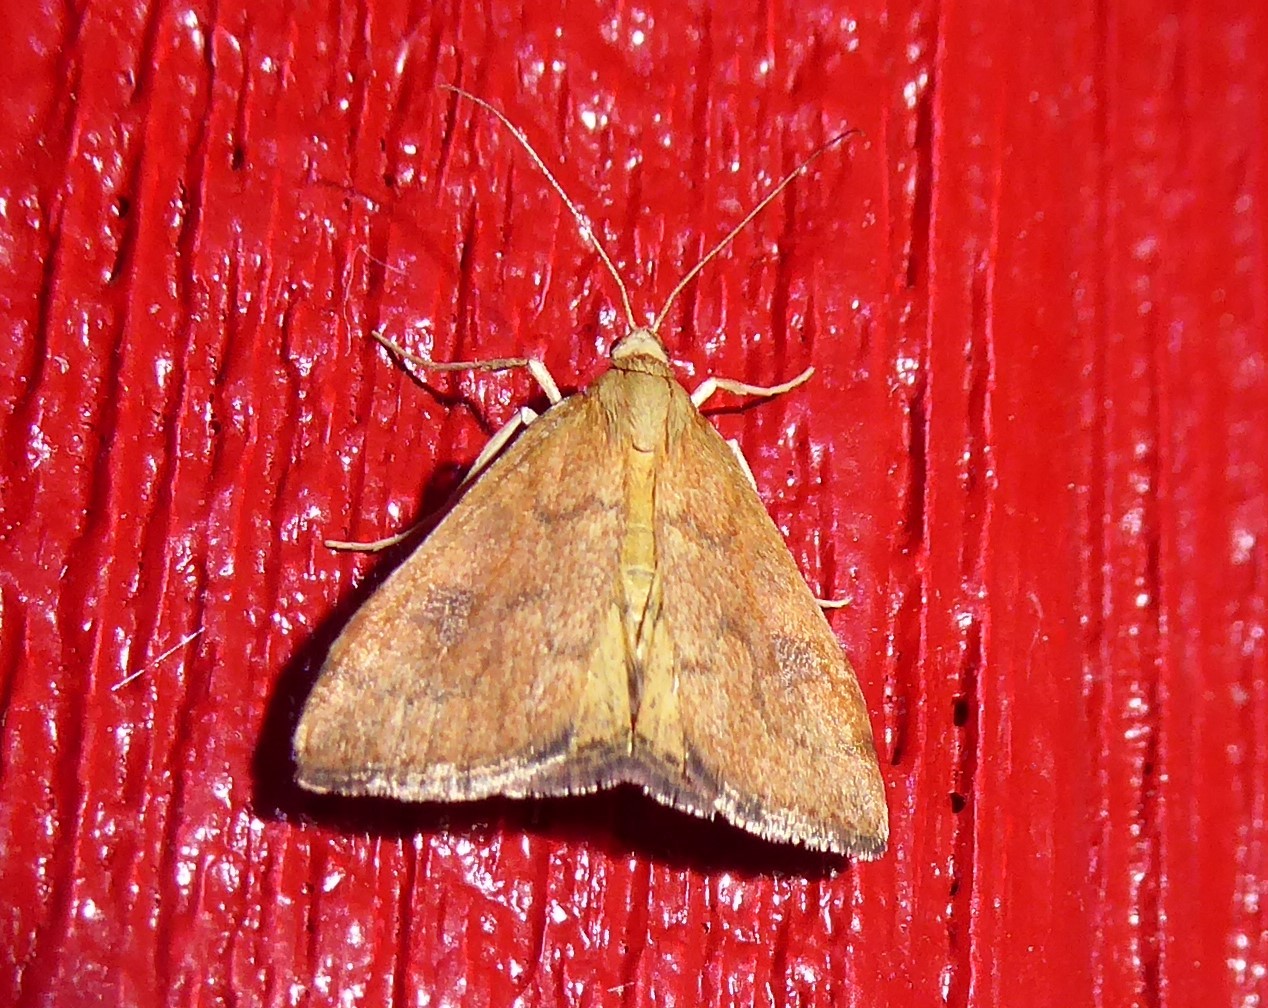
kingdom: Animalia
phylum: Arthropoda
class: Insecta
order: Lepidoptera
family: Crambidae
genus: Udea
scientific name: Udea Mnesictena flavidalis
